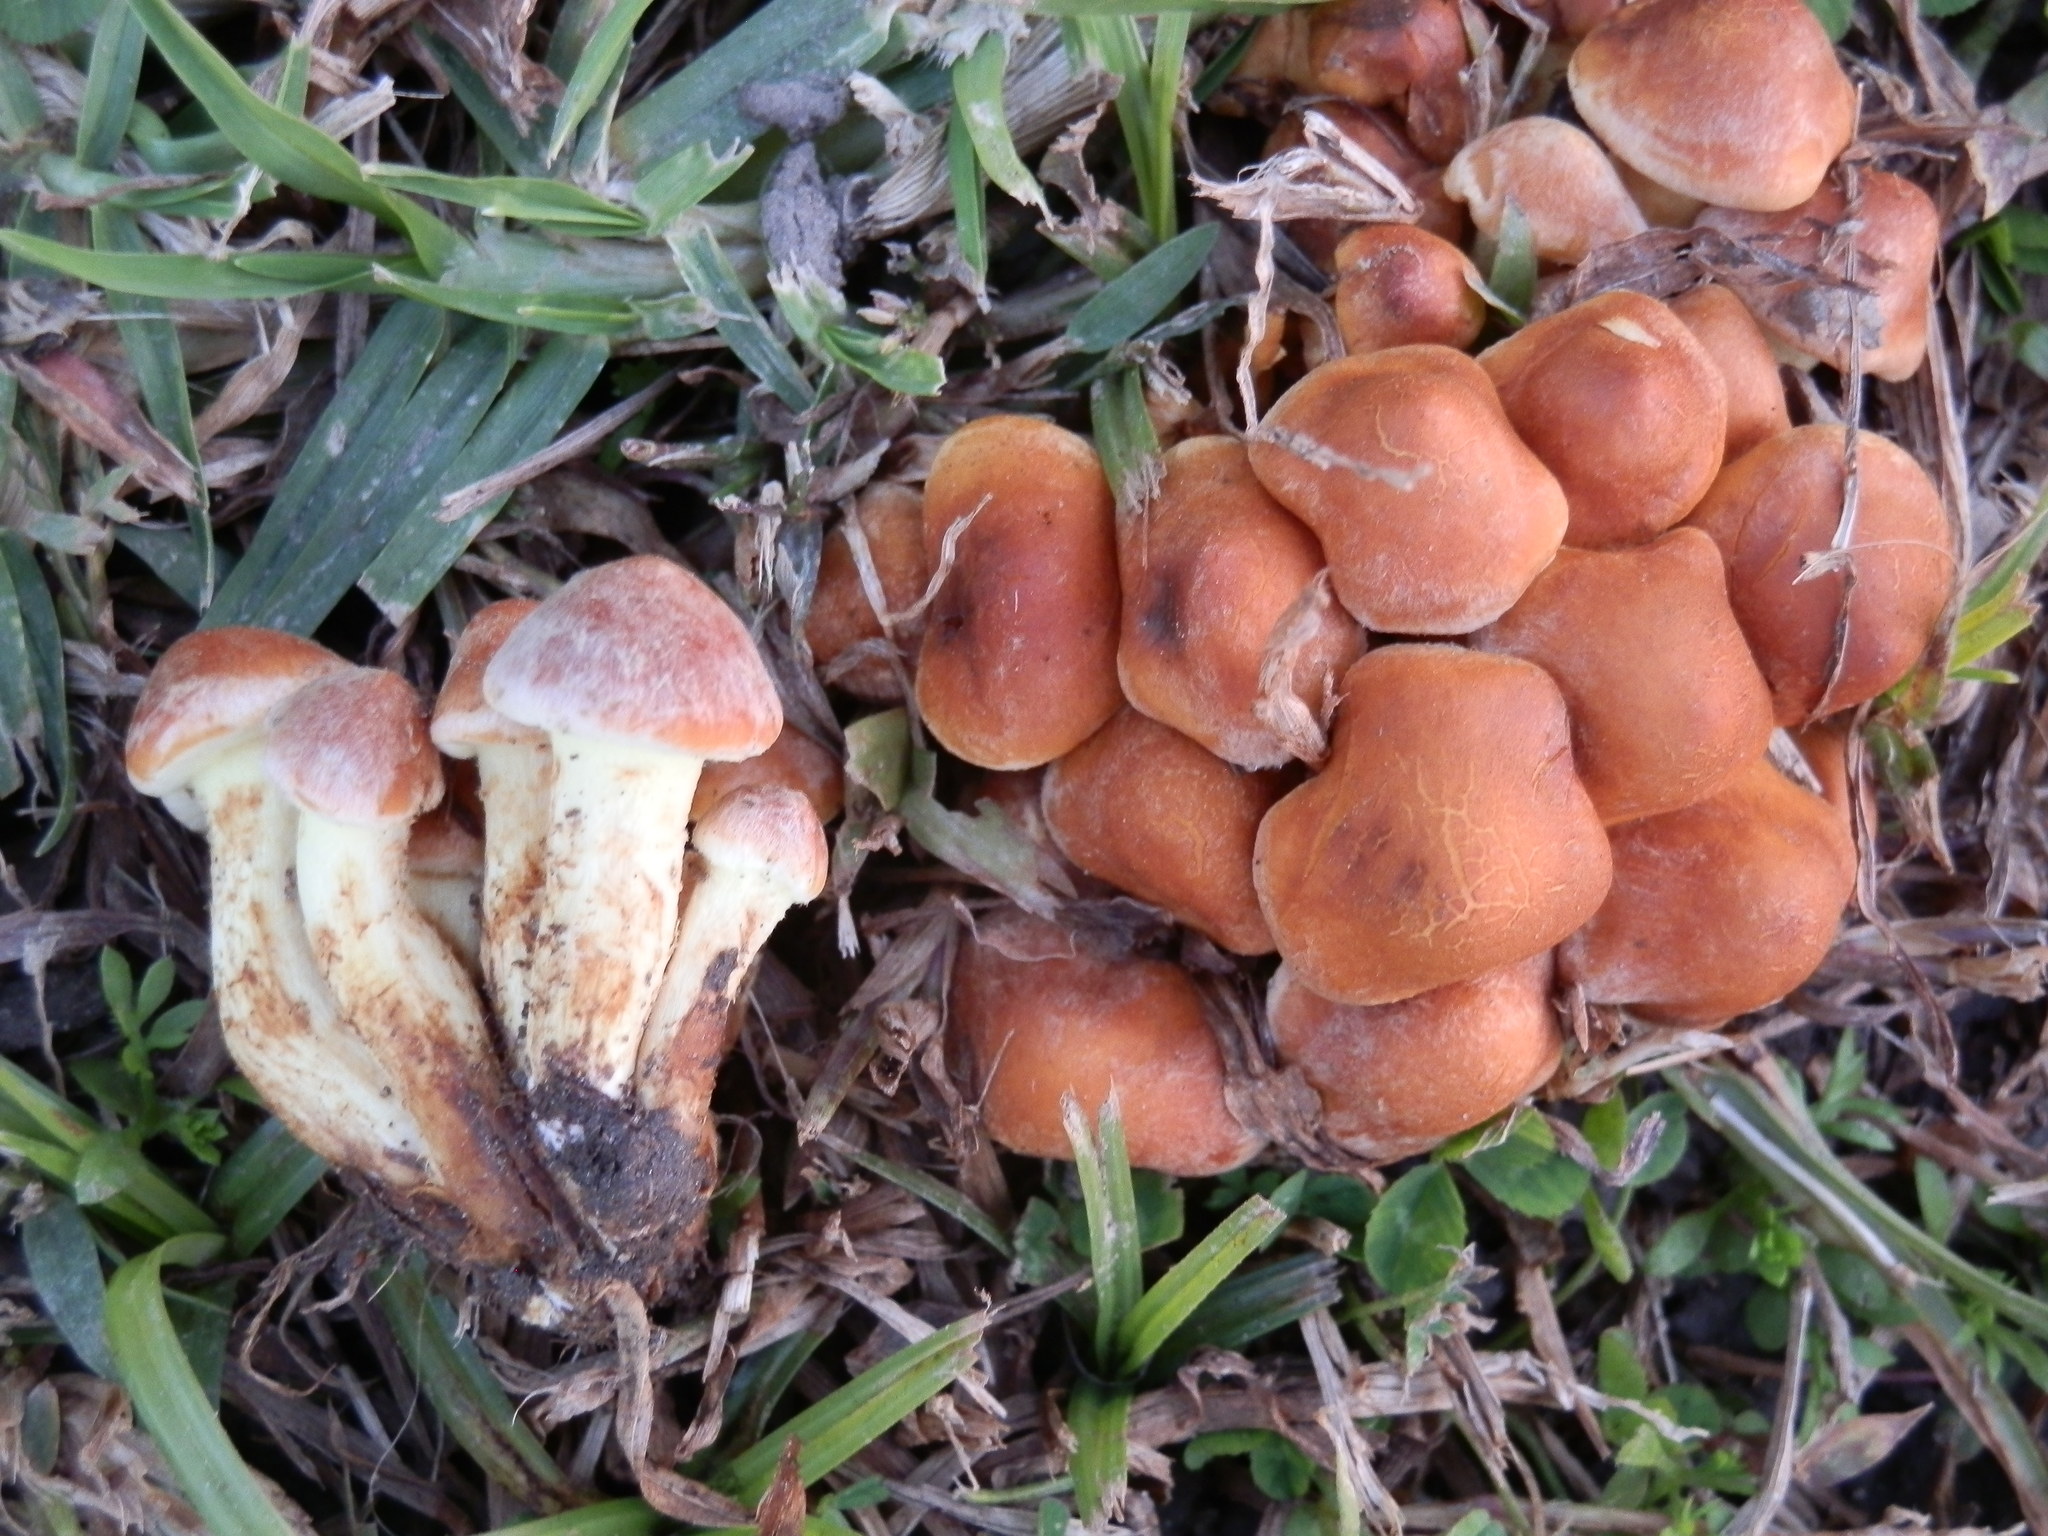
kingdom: Fungi
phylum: Basidiomycota
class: Agaricomycetes
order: Agaricales
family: Strophariaceae
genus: Hypholoma
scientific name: Hypholoma fasciculare
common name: Sulphur tuft
